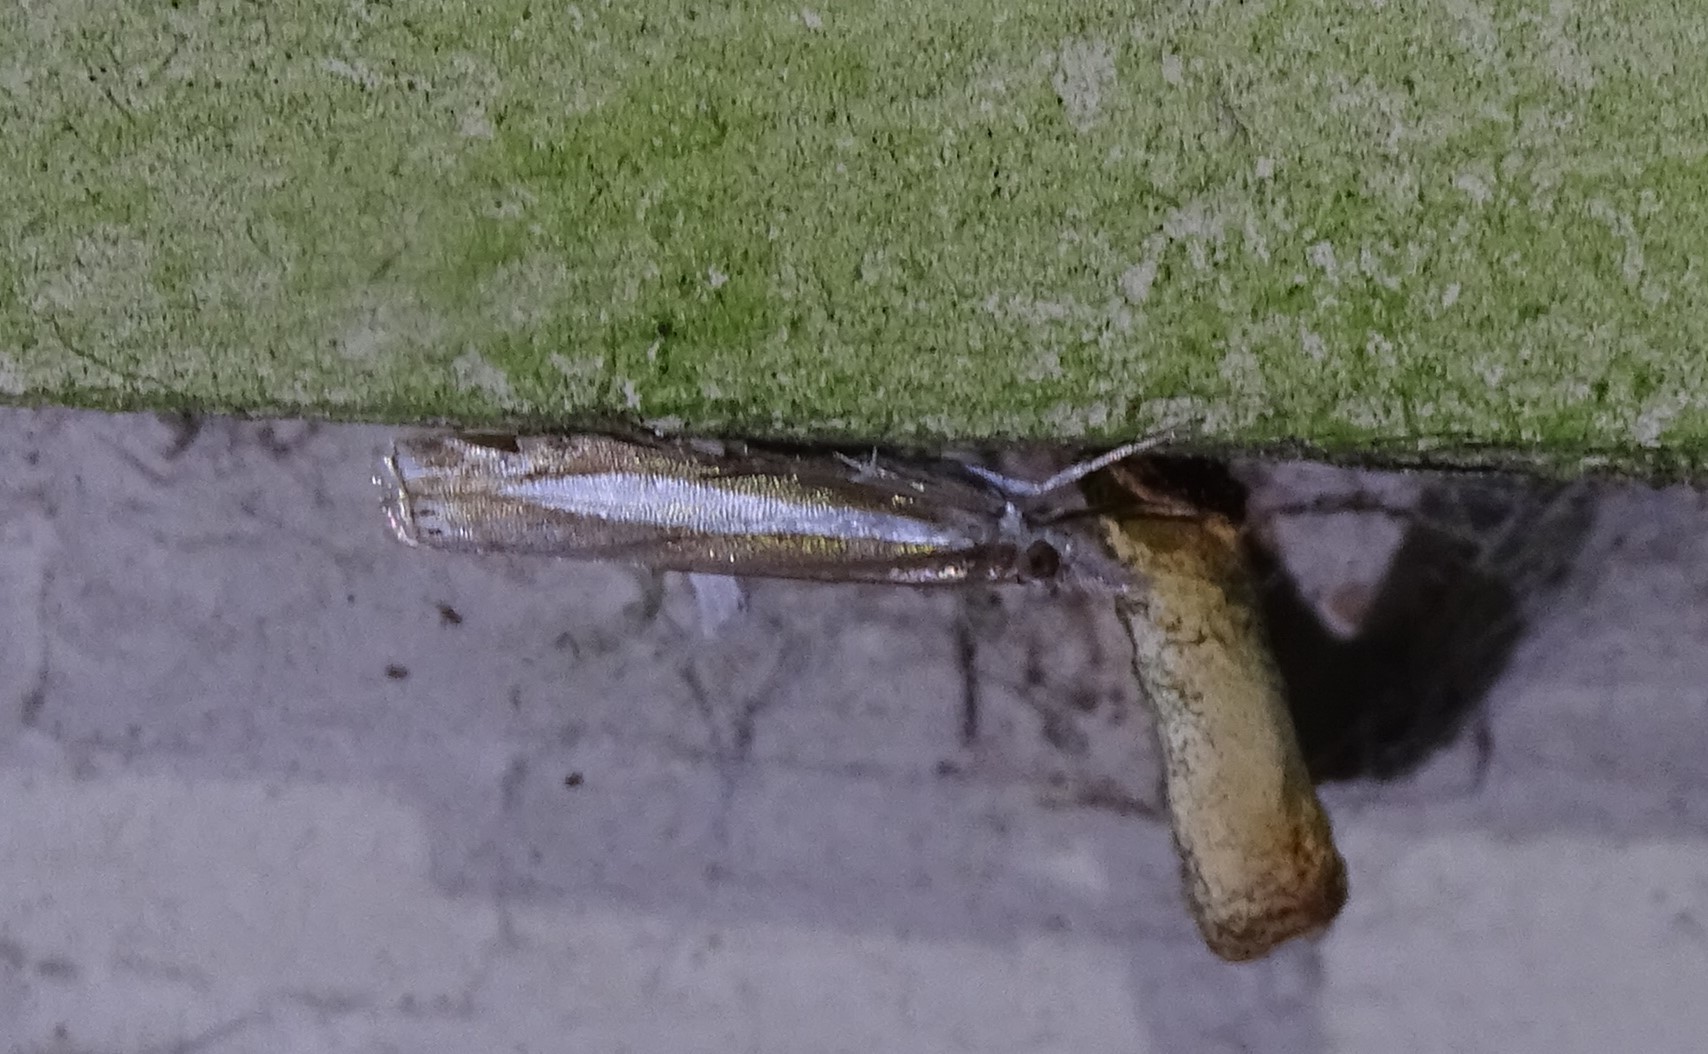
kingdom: Animalia
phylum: Arthropoda
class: Insecta
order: Lepidoptera
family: Crambidae
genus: Crambus
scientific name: Crambus praefectellus
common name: Common grass-veneer
